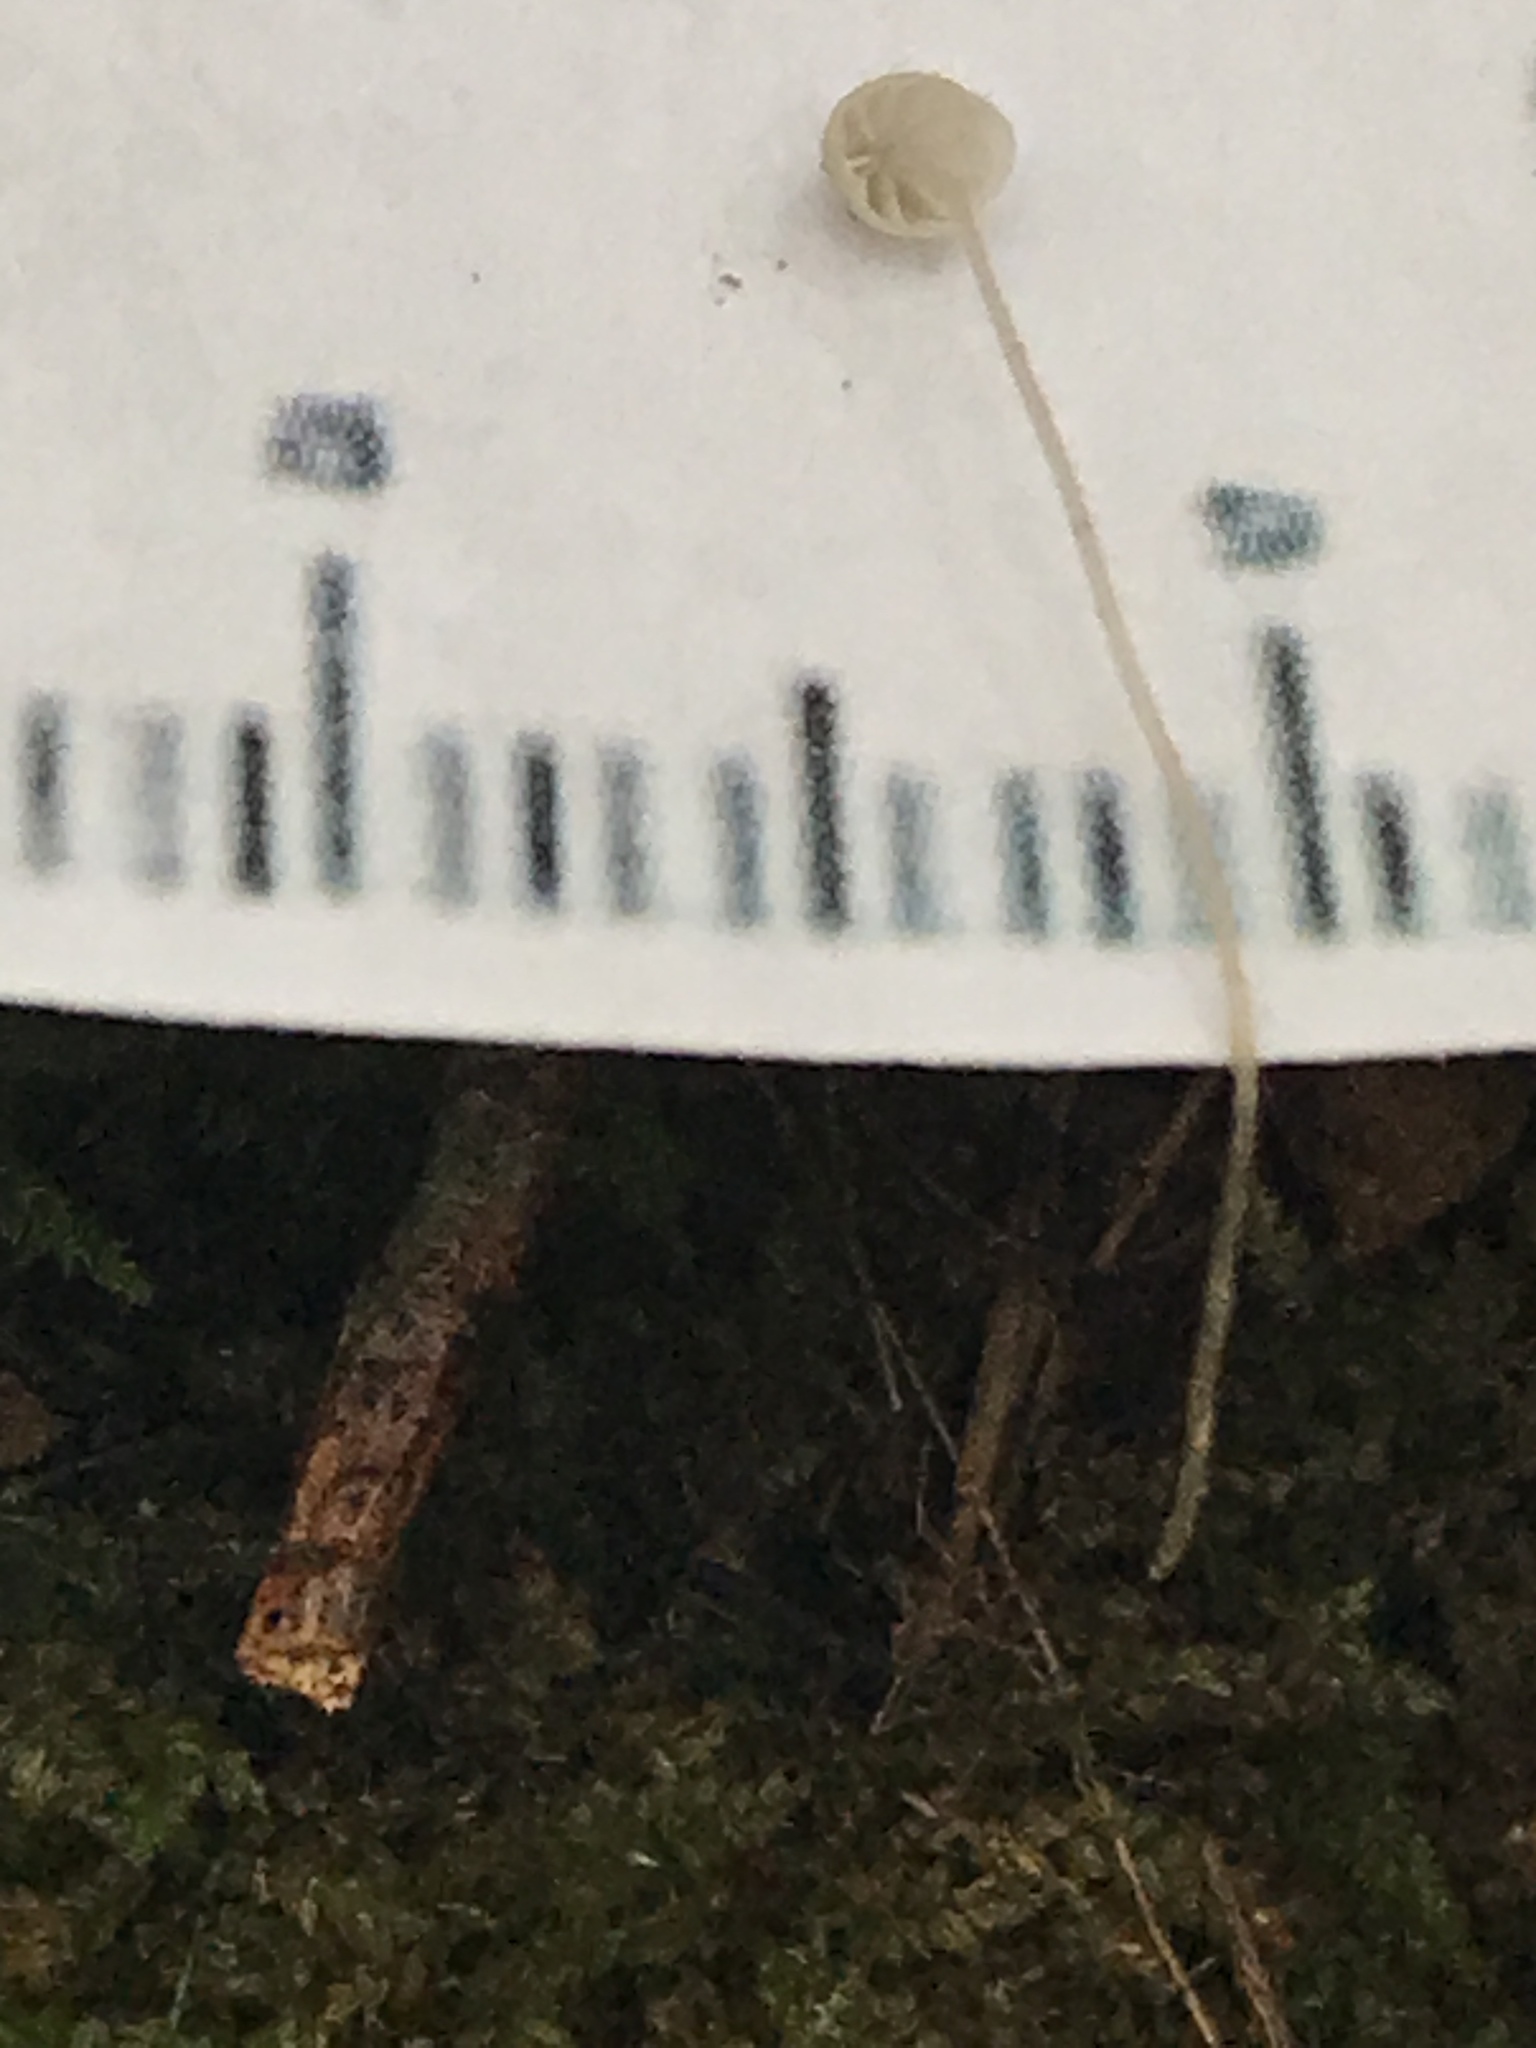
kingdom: Fungi
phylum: Basidiomycota
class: Agaricomycetes
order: Agaricales
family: Mycenaceae
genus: Mycena
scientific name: Mycena mirata
